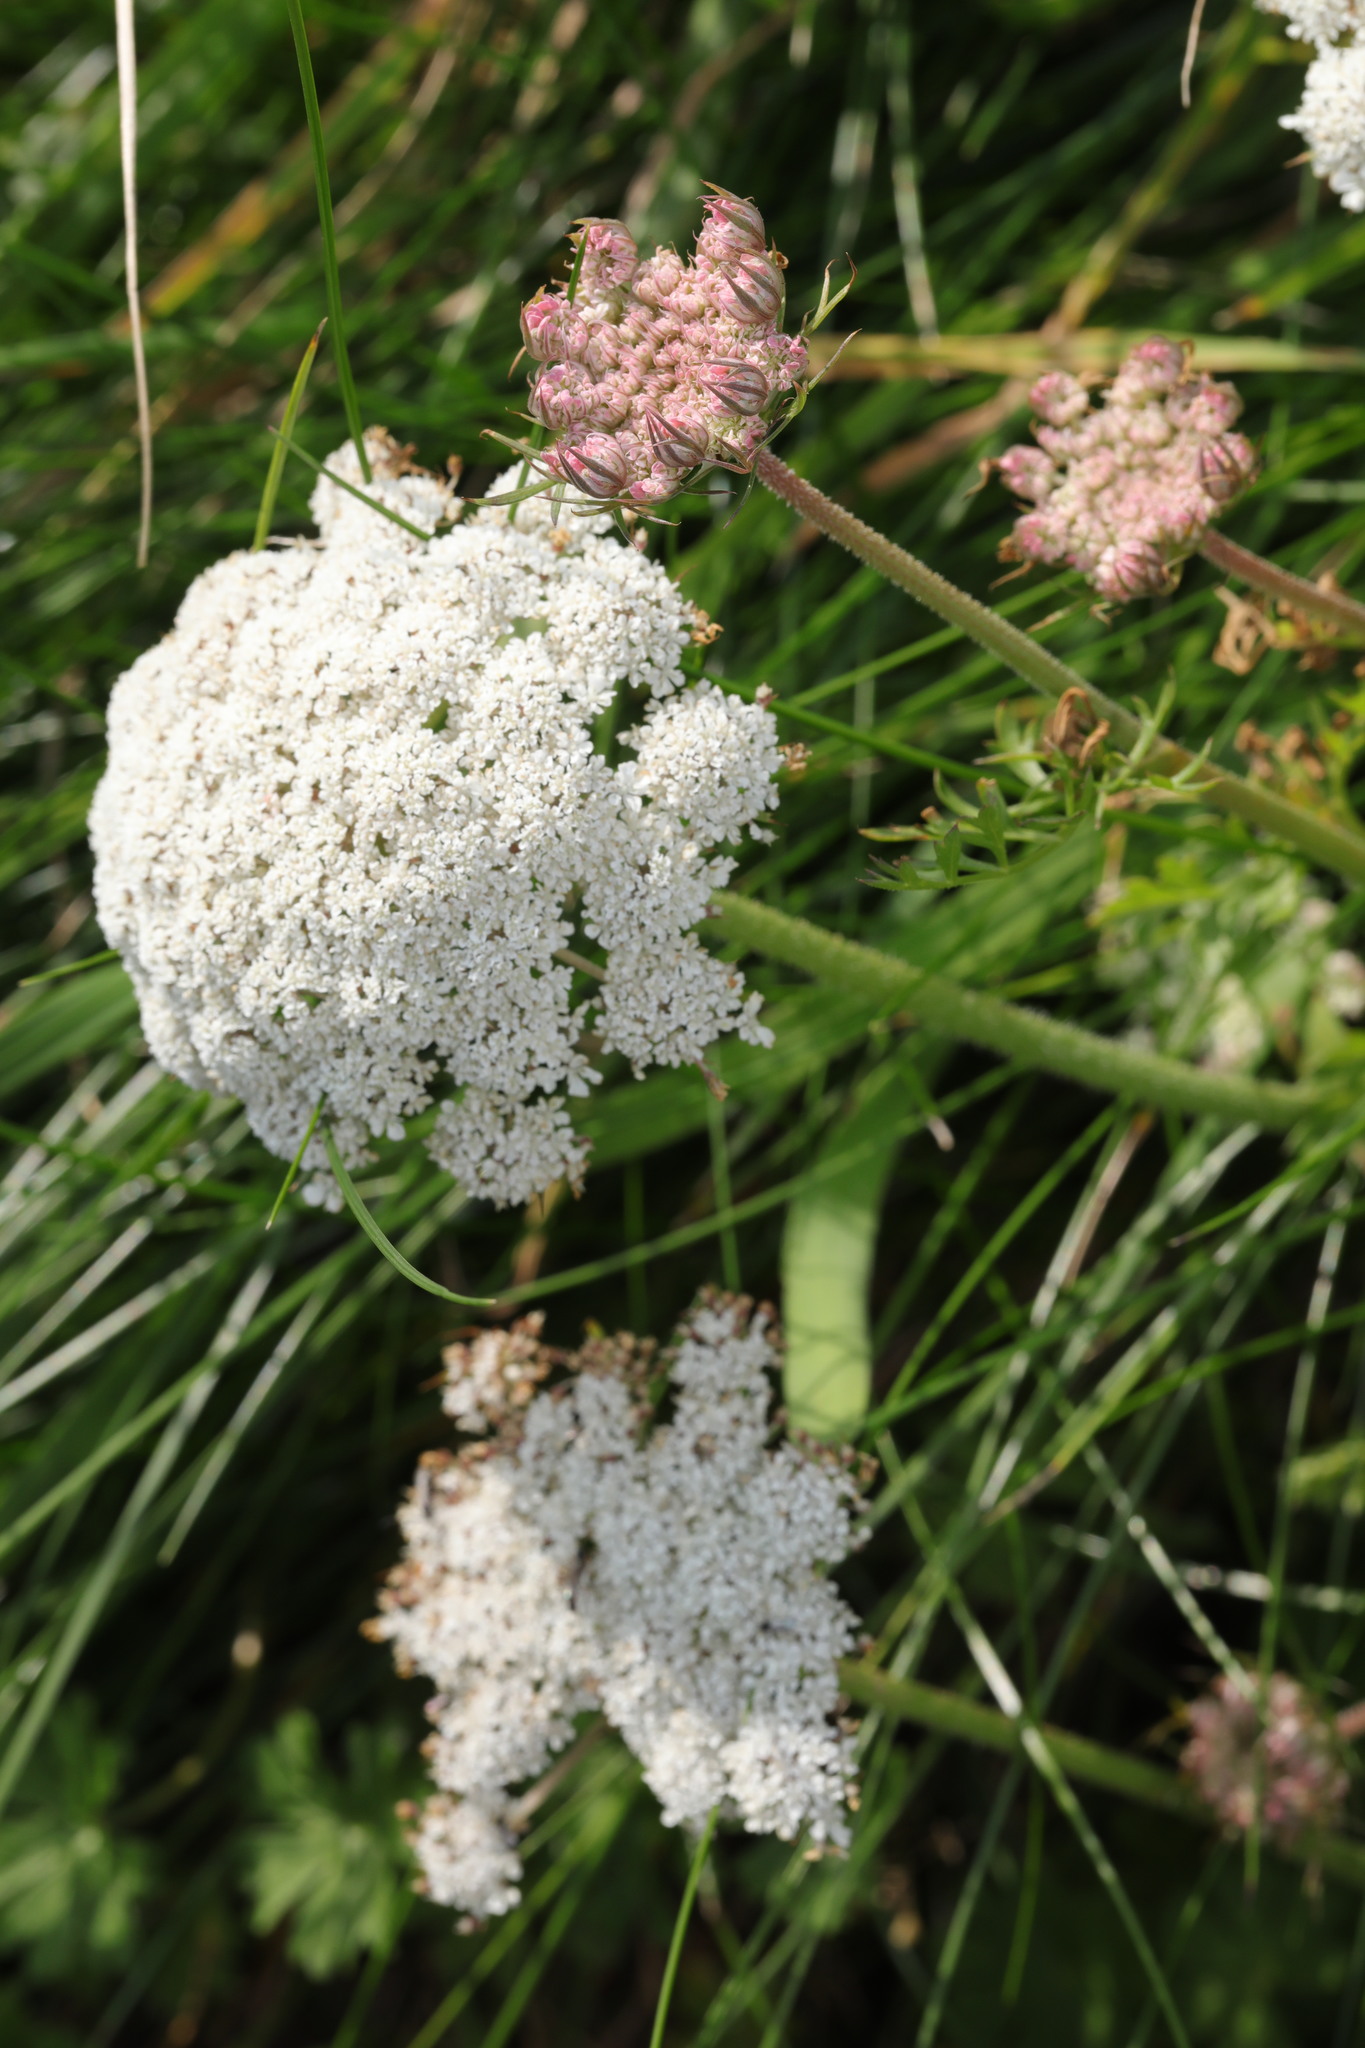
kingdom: Plantae
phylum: Tracheophyta
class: Magnoliopsida
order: Apiales
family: Apiaceae
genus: Daucus
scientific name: Daucus carota
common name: Wild carrot
